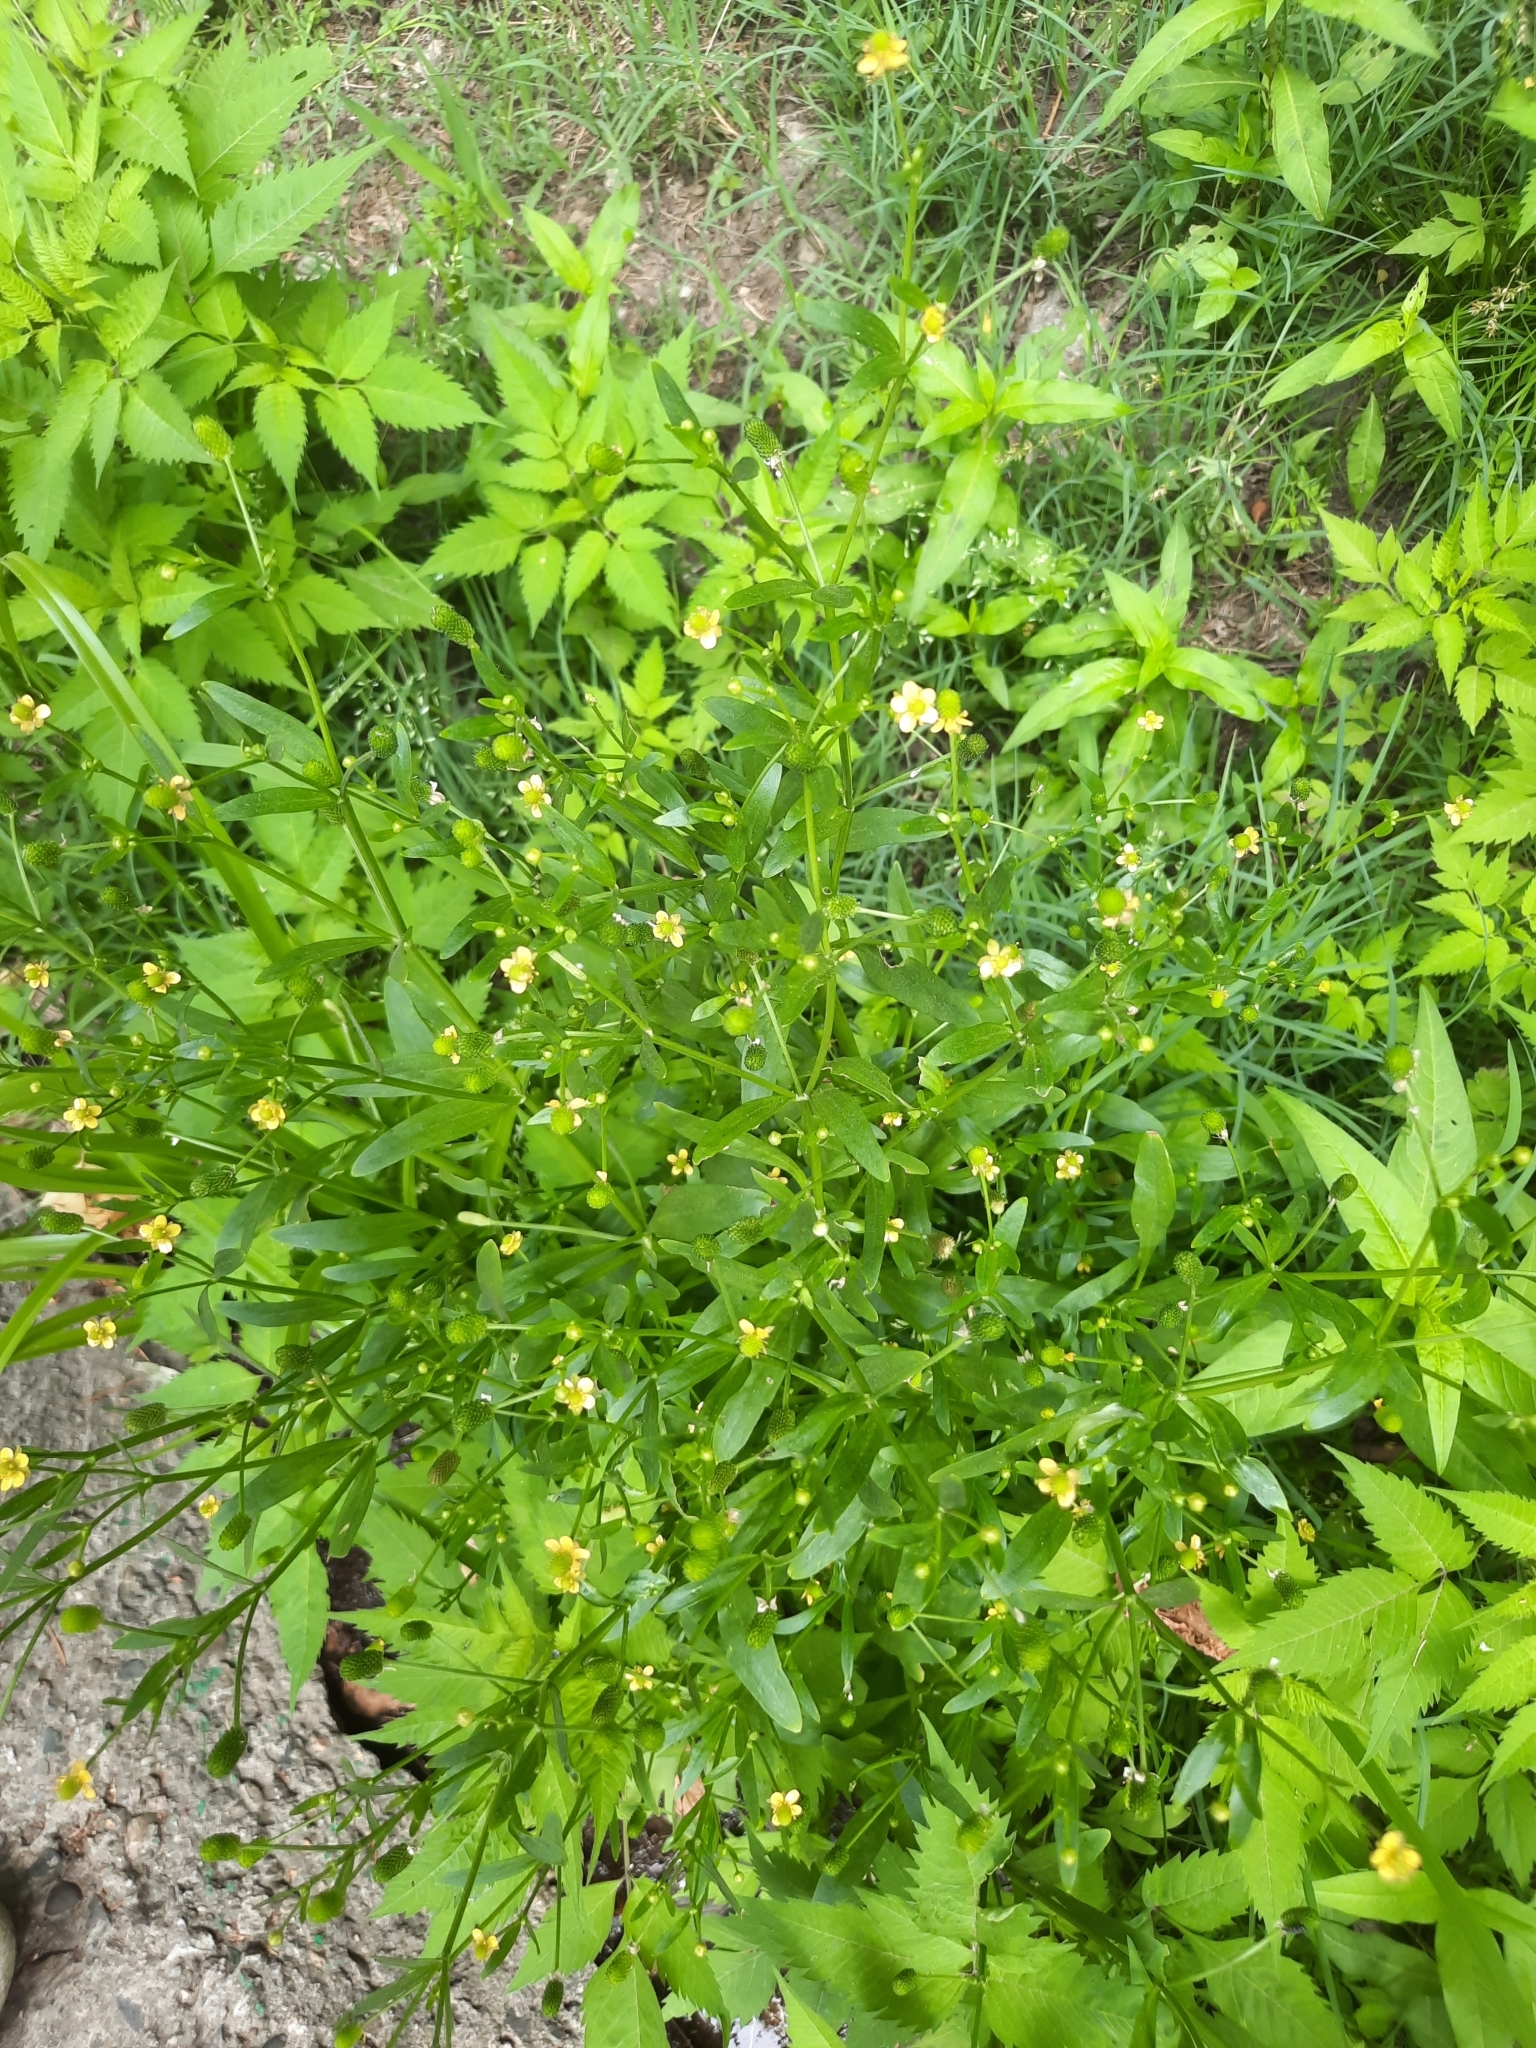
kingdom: Plantae
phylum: Tracheophyta
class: Magnoliopsida
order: Ranunculales
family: Ranunculaceae
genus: Ranunculus
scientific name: Ranunculus sceleratus
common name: Celery-leaved buttercup
